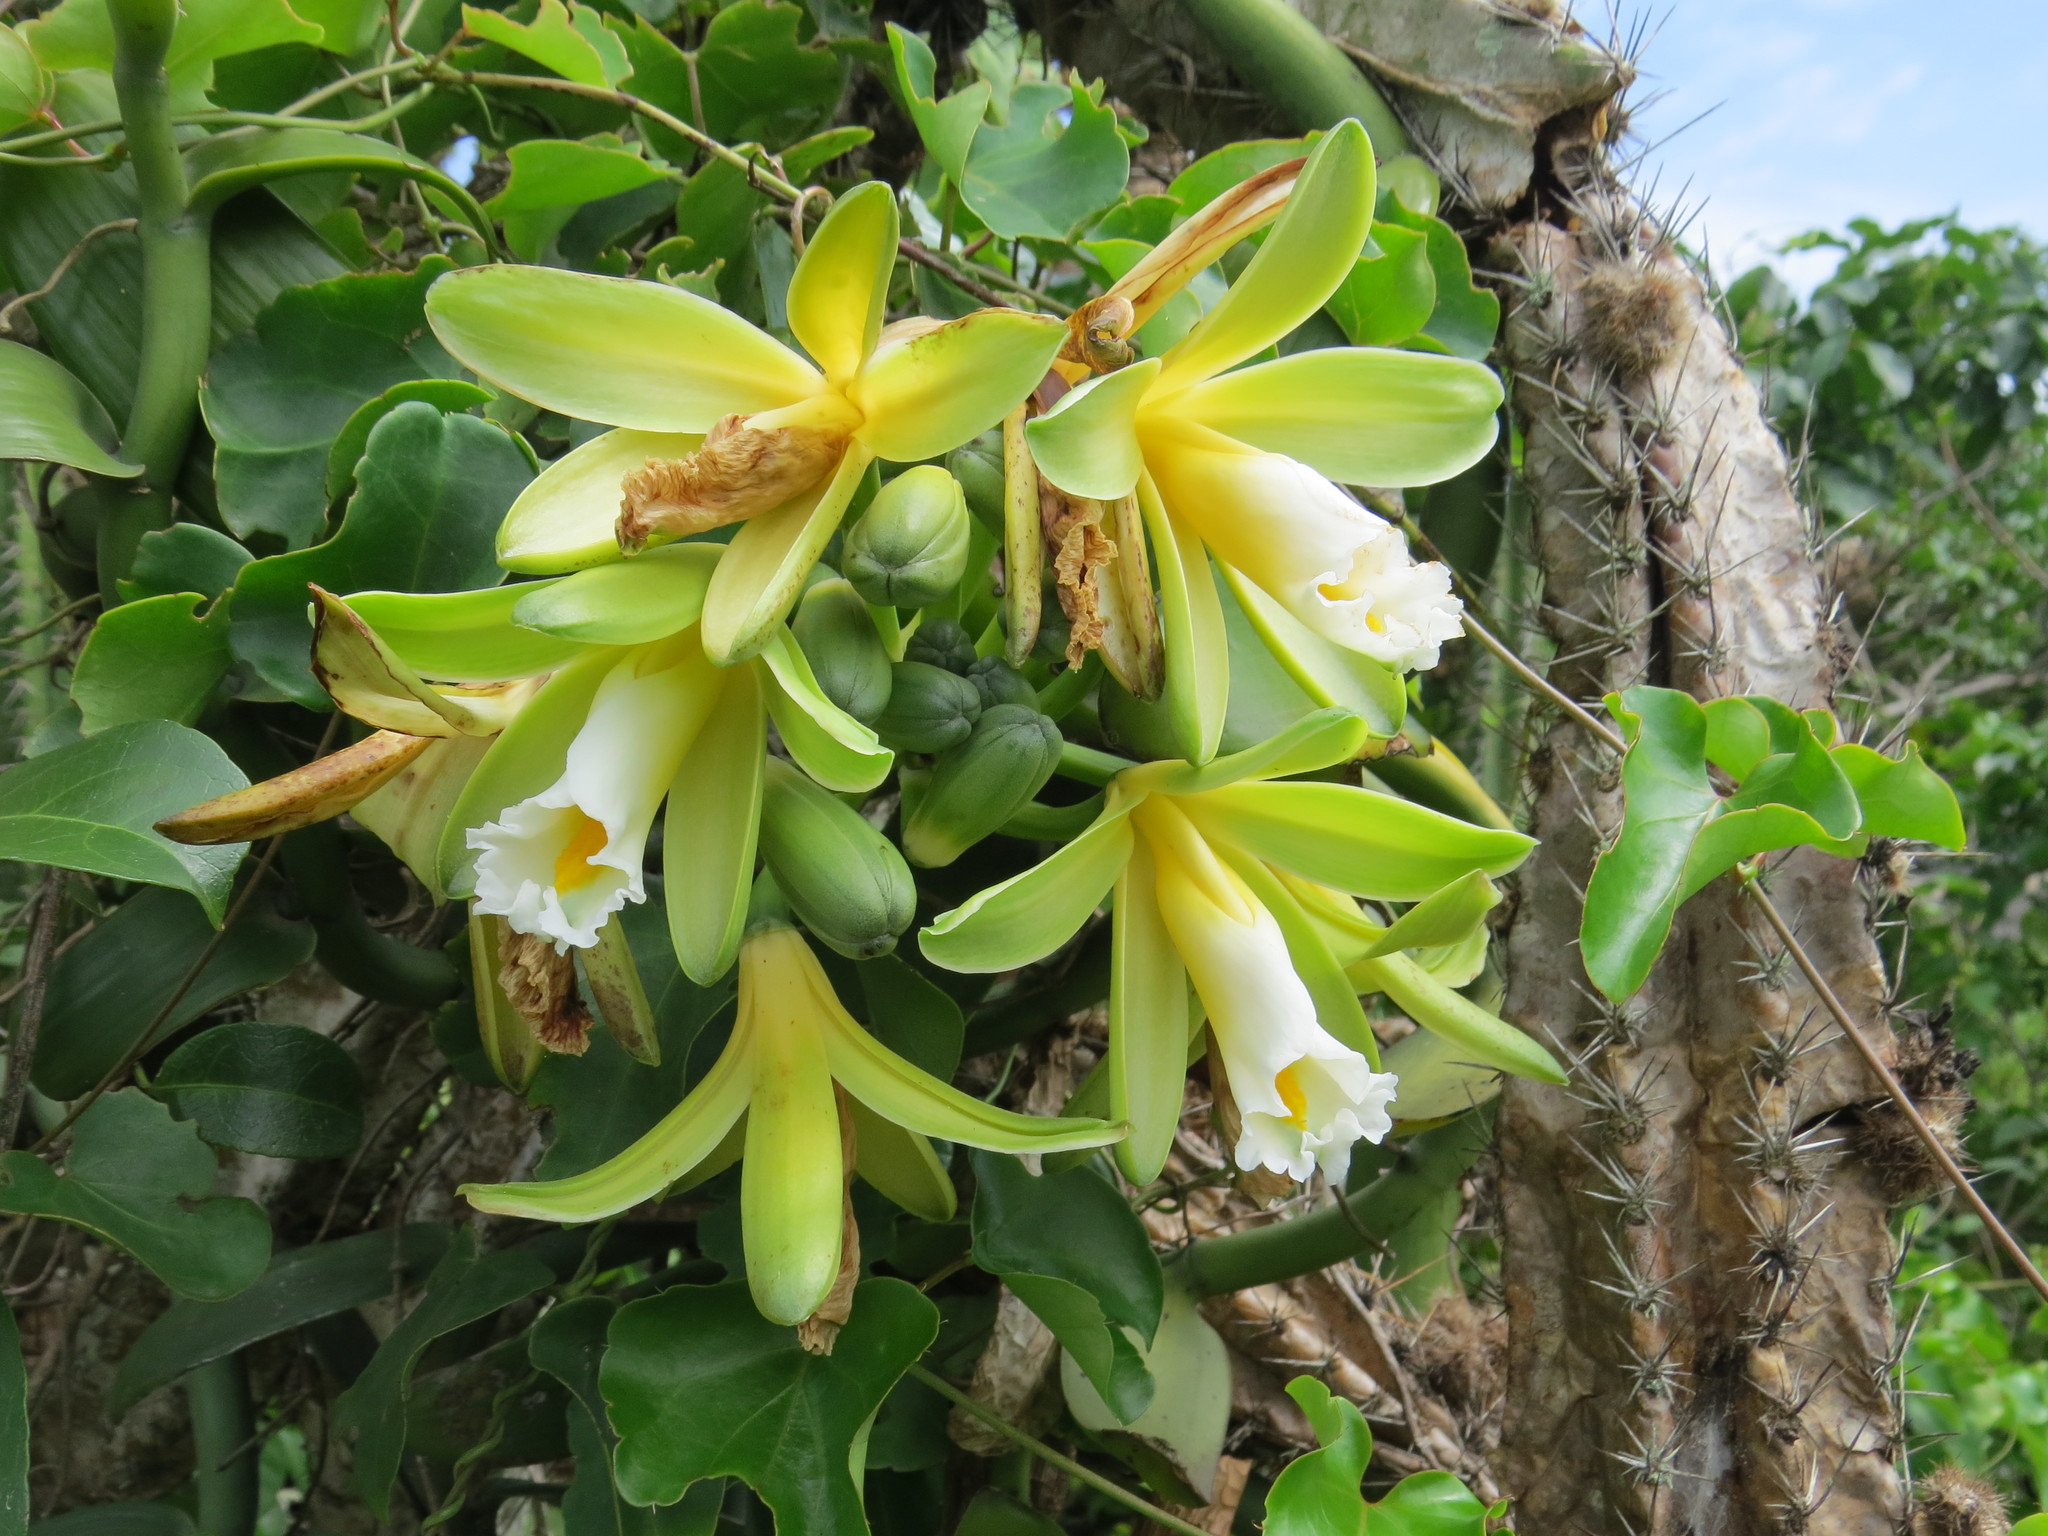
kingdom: Plantae
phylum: Tracheophyta
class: Liliopsida
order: Asparagales
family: Orchidaceae
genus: Vanilla
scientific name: Vanilla chamissonis
